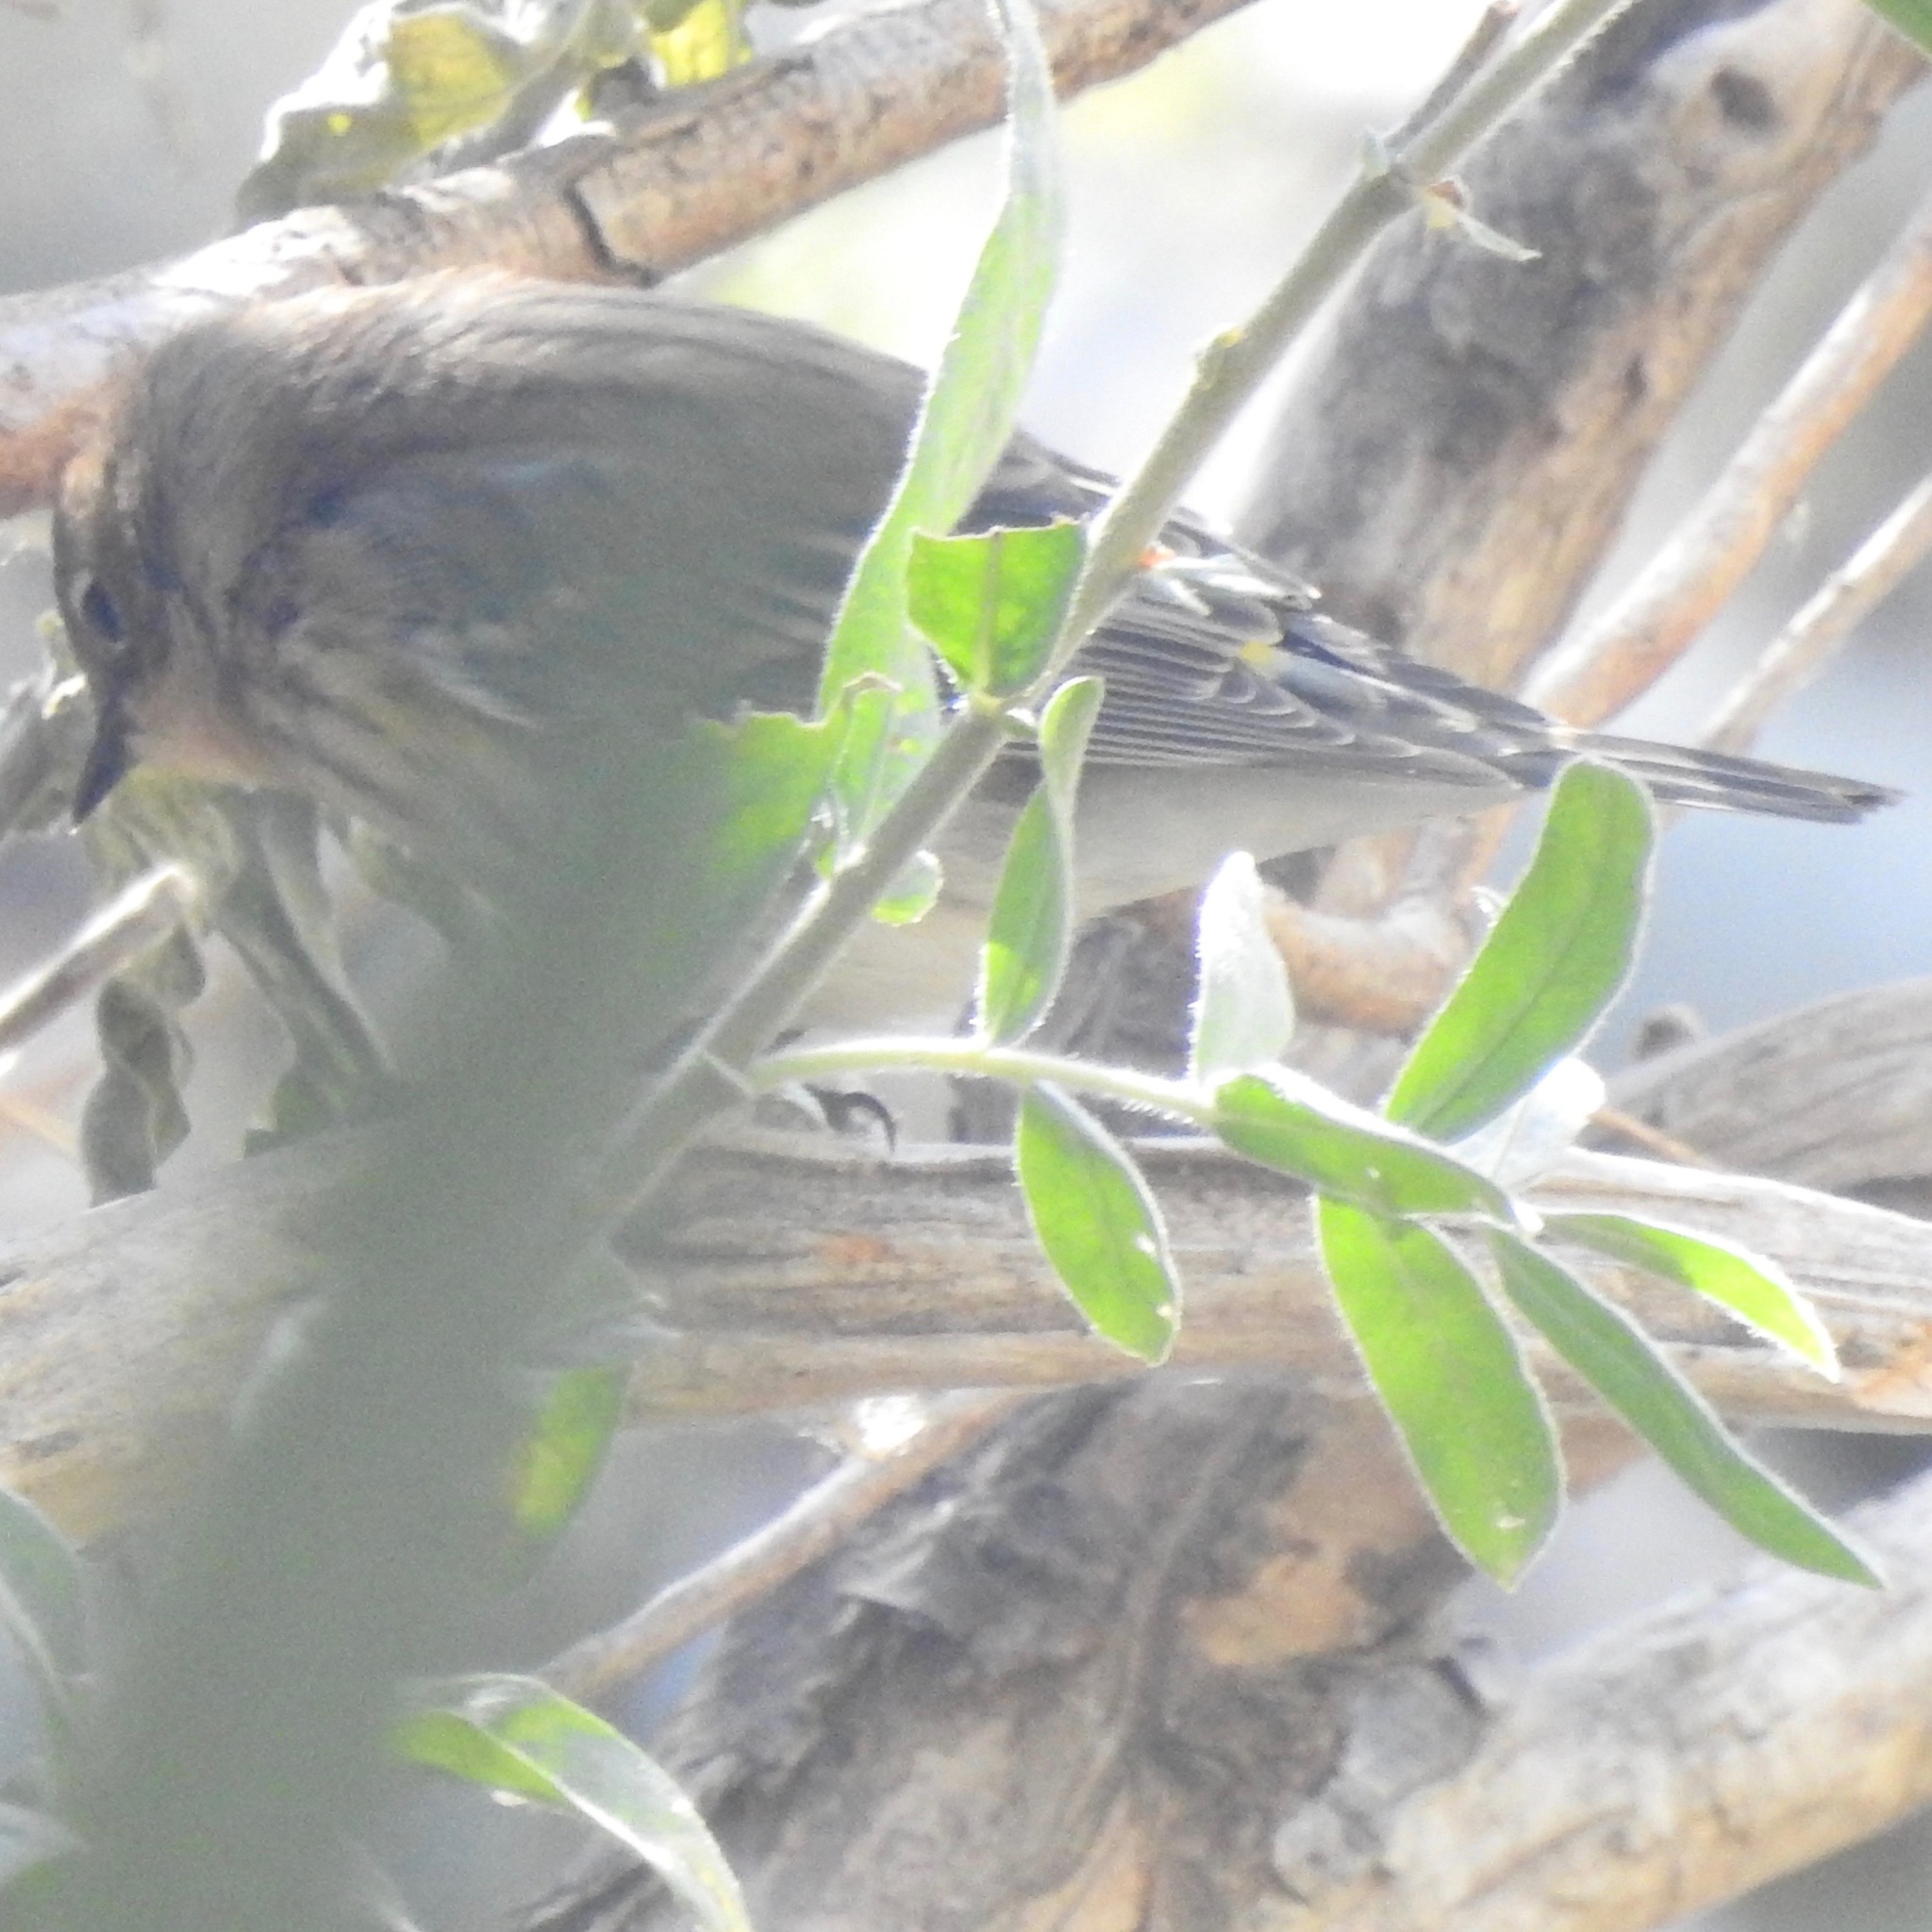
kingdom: Animalia
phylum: Chordata
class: Aves
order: Passeriformes
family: Parulidae
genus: Setophaga
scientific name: Setophaga coronata
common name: Myrtle warbler
